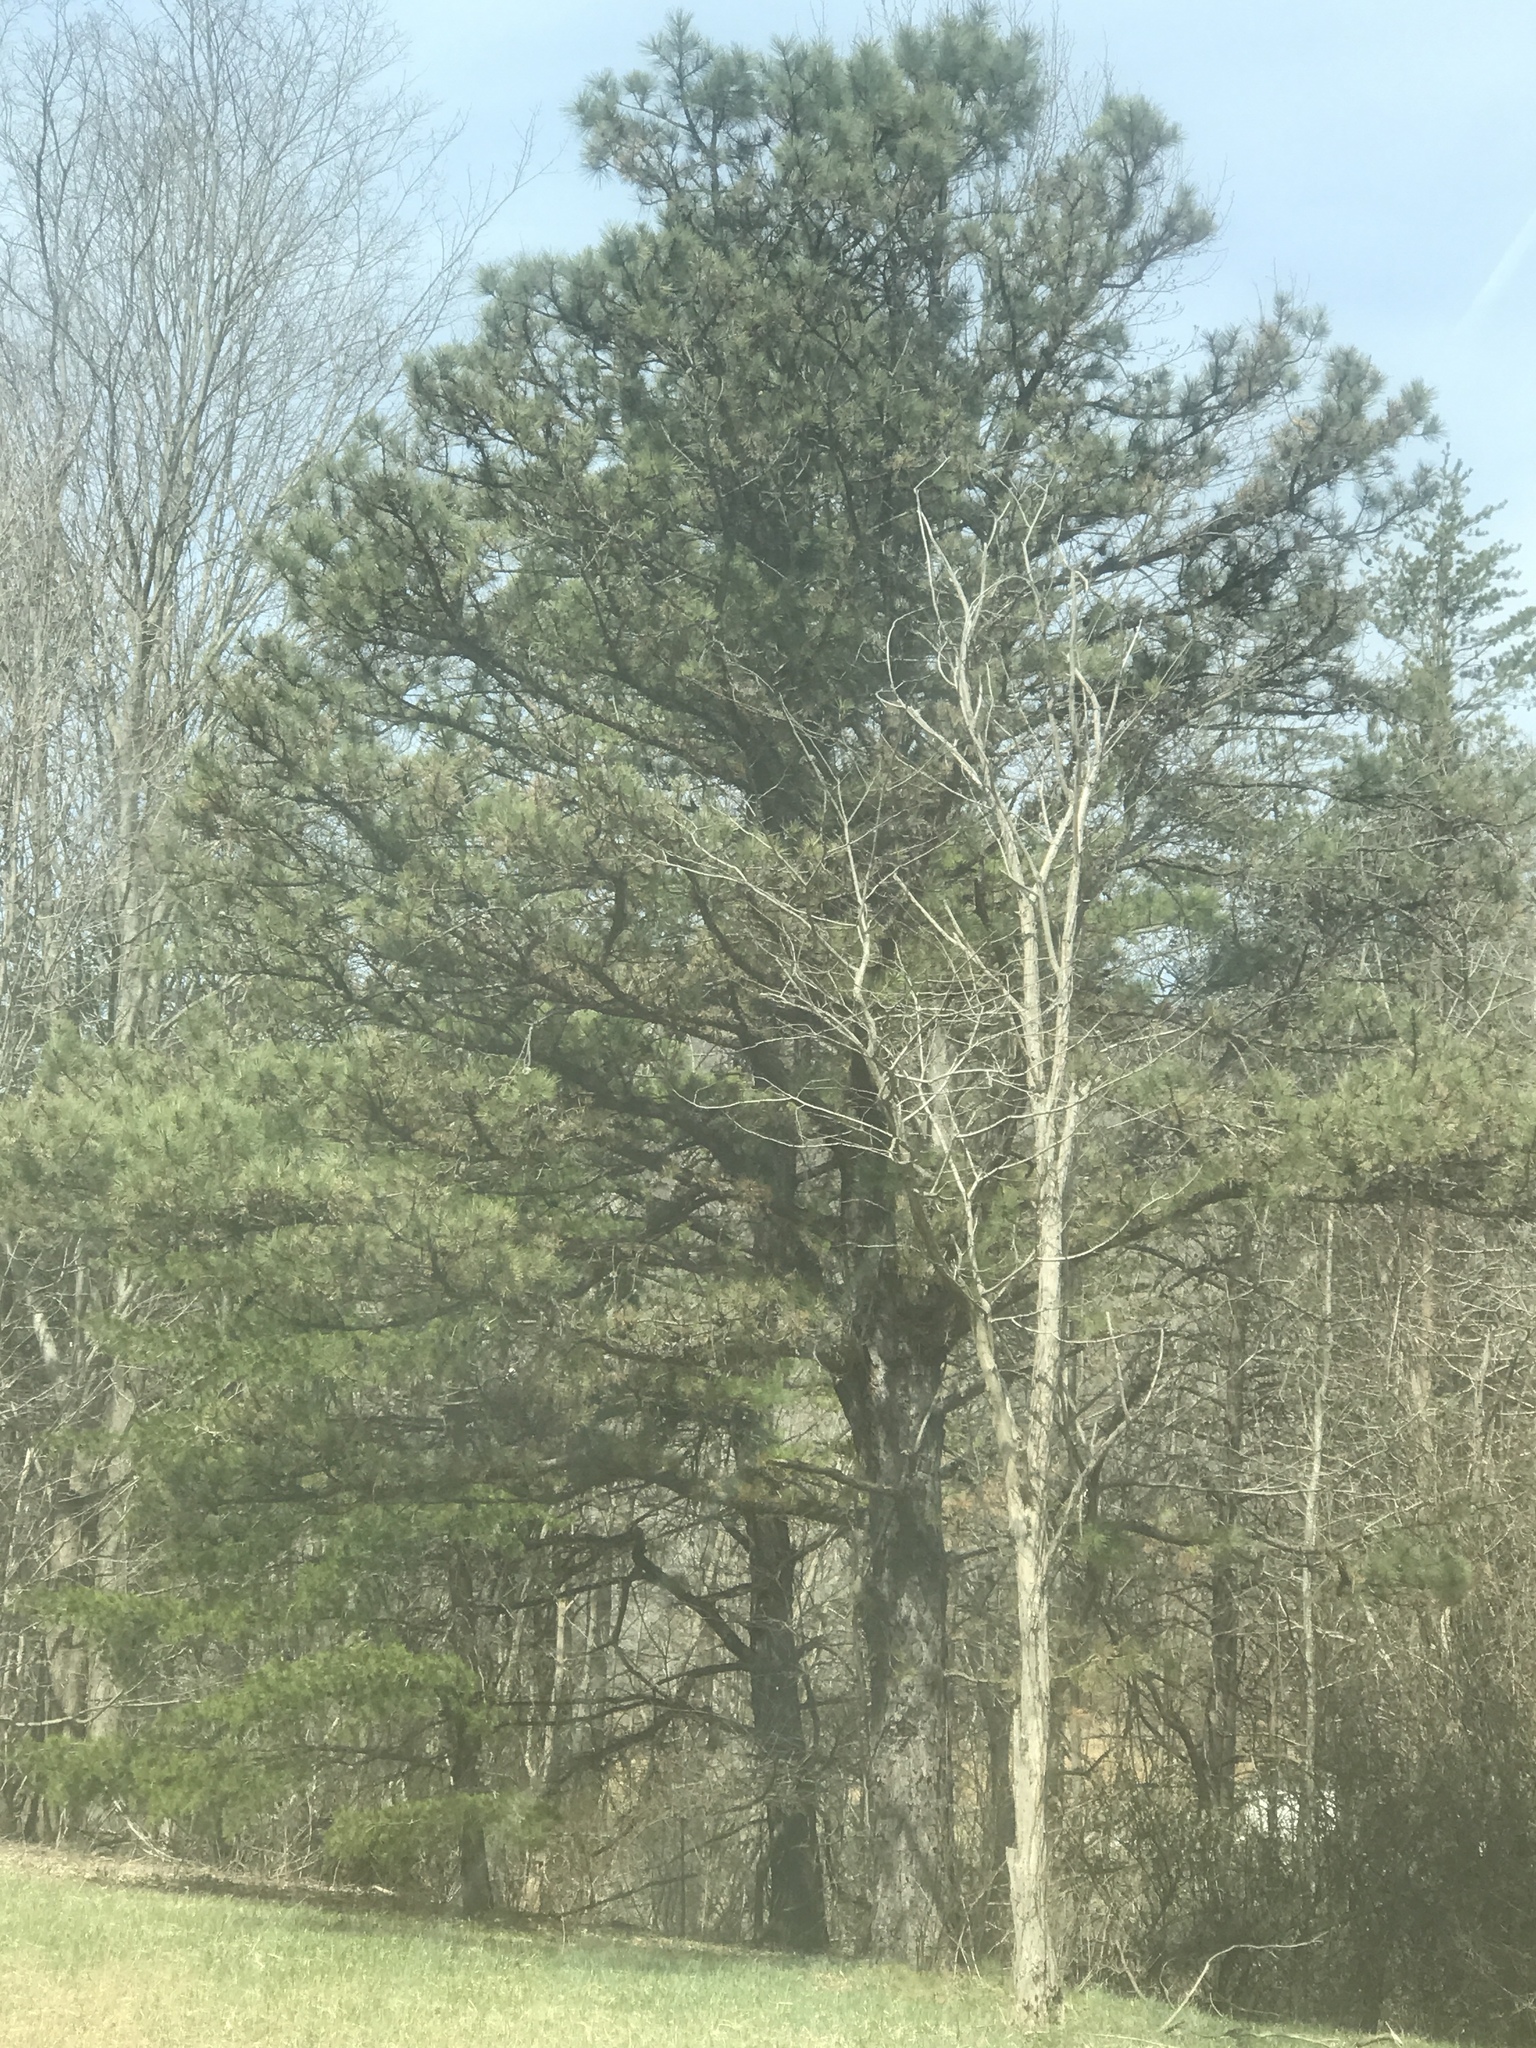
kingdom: Plantae
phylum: Tracheophyta
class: Pinopsida
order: Pinales
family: Pinaceae
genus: Pinus
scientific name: Pinus rigida
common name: Pitch pine
